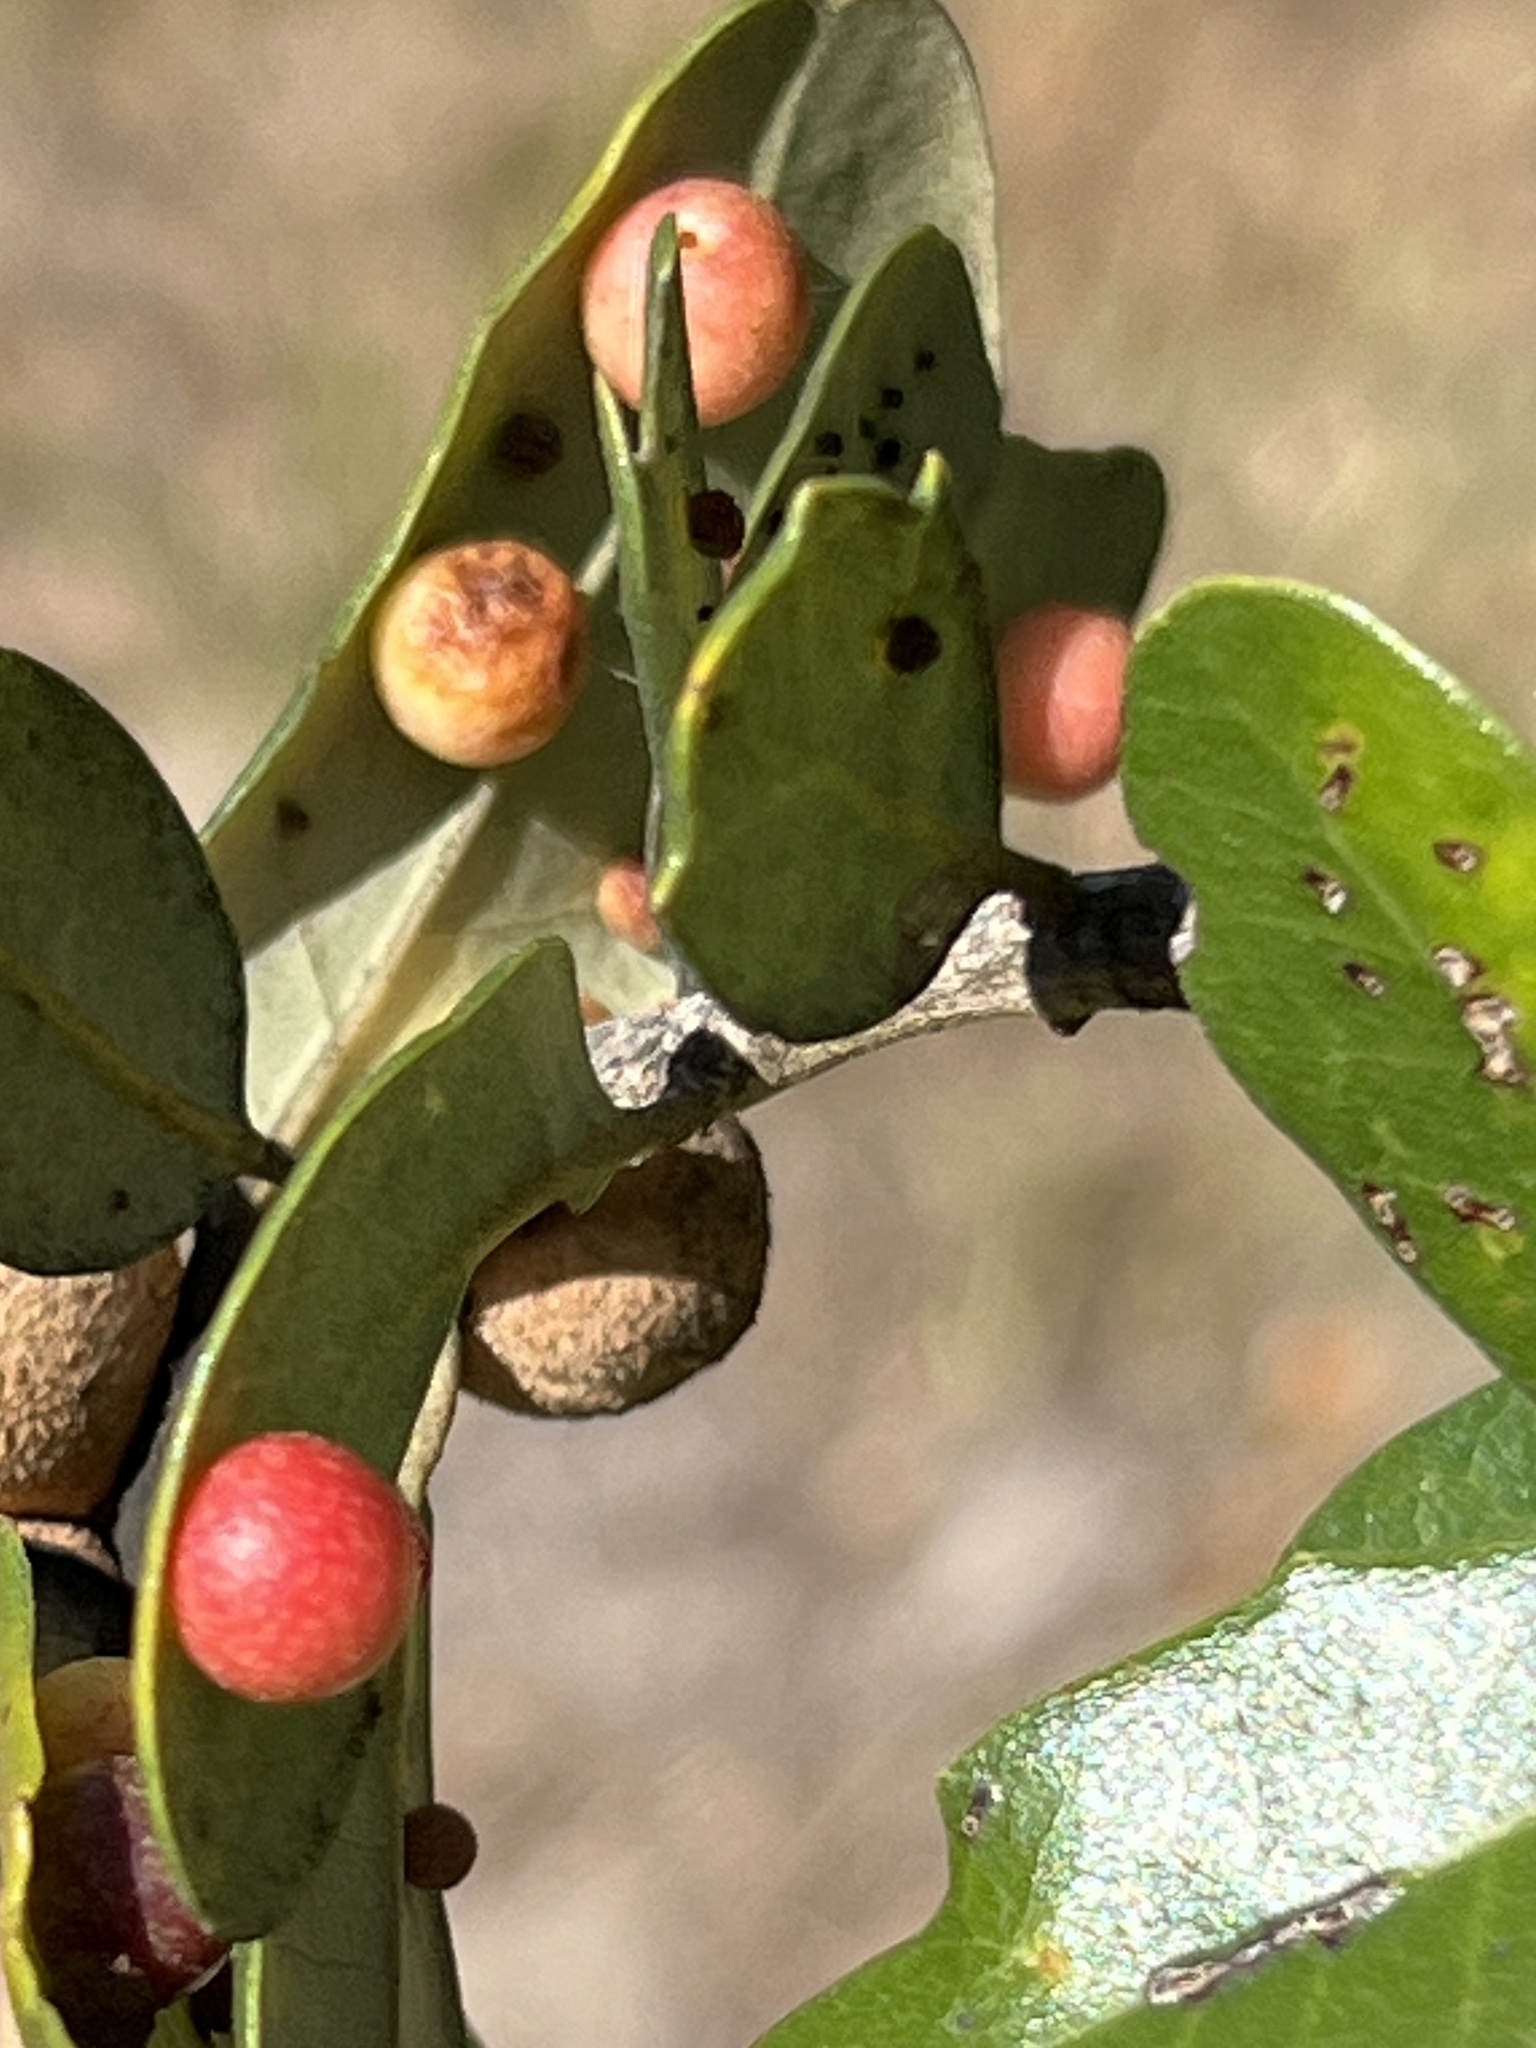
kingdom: Animalia
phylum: Arthropoda
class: Insecta
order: Hymenoptera
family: Cynipidae
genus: Belonocnema
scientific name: Belonocnema kinseyi
